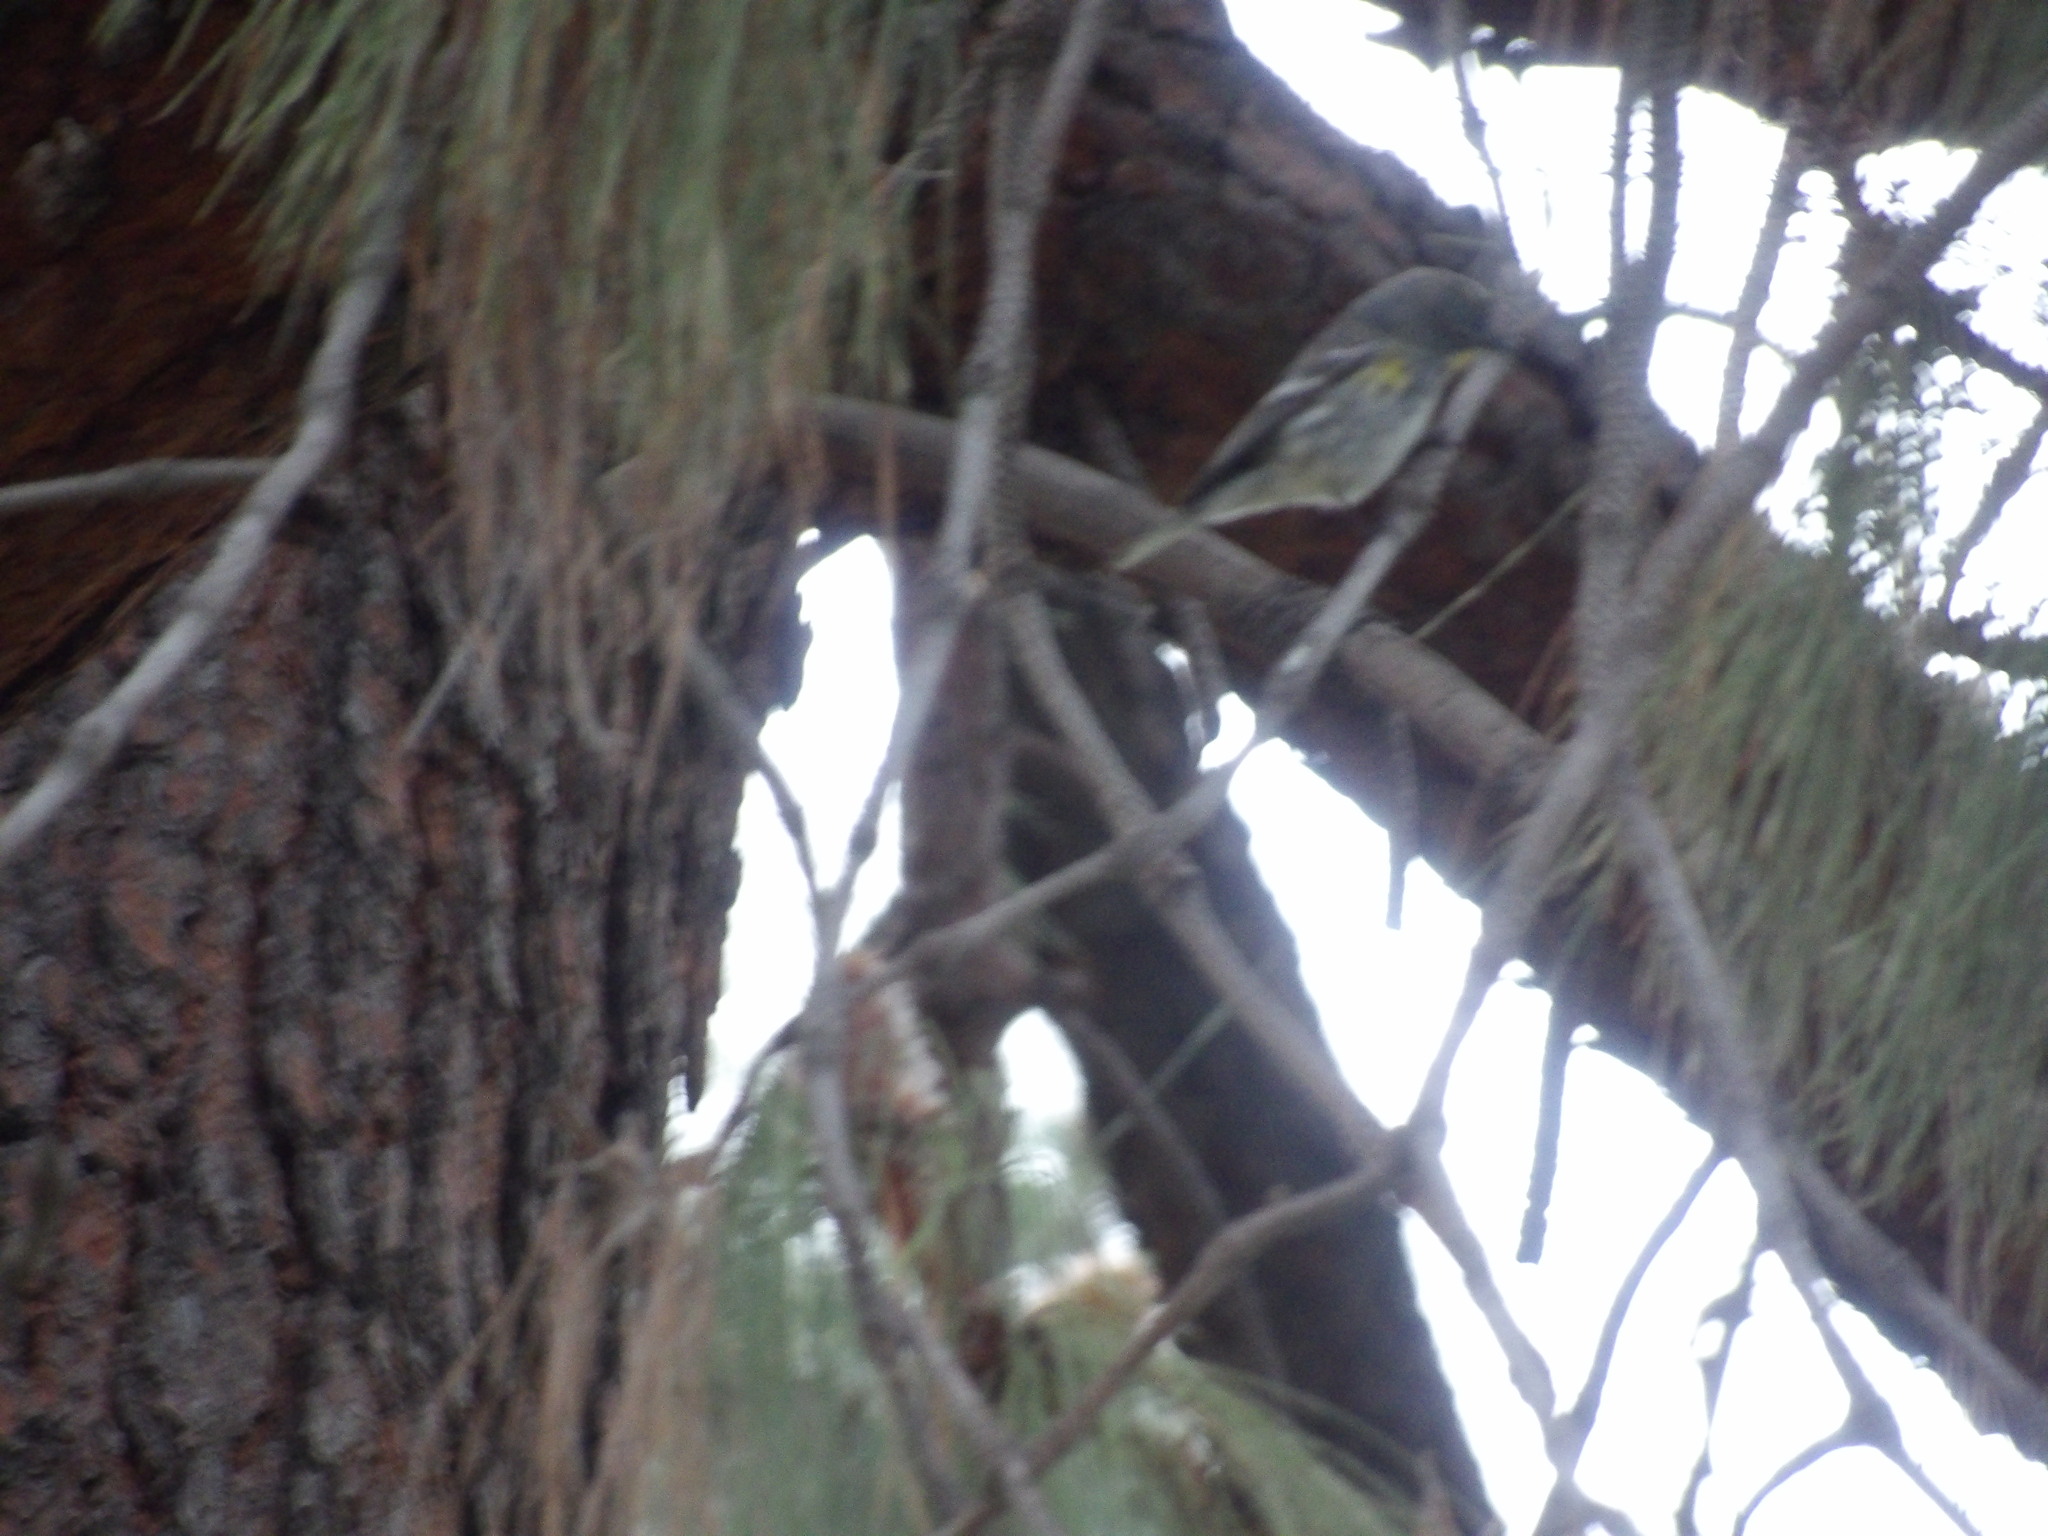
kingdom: Animalia
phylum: Chordata
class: Aves
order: Passeriformes
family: Parulidae
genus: Setophaga
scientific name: Setophaga coronata
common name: Myrtle warbler
